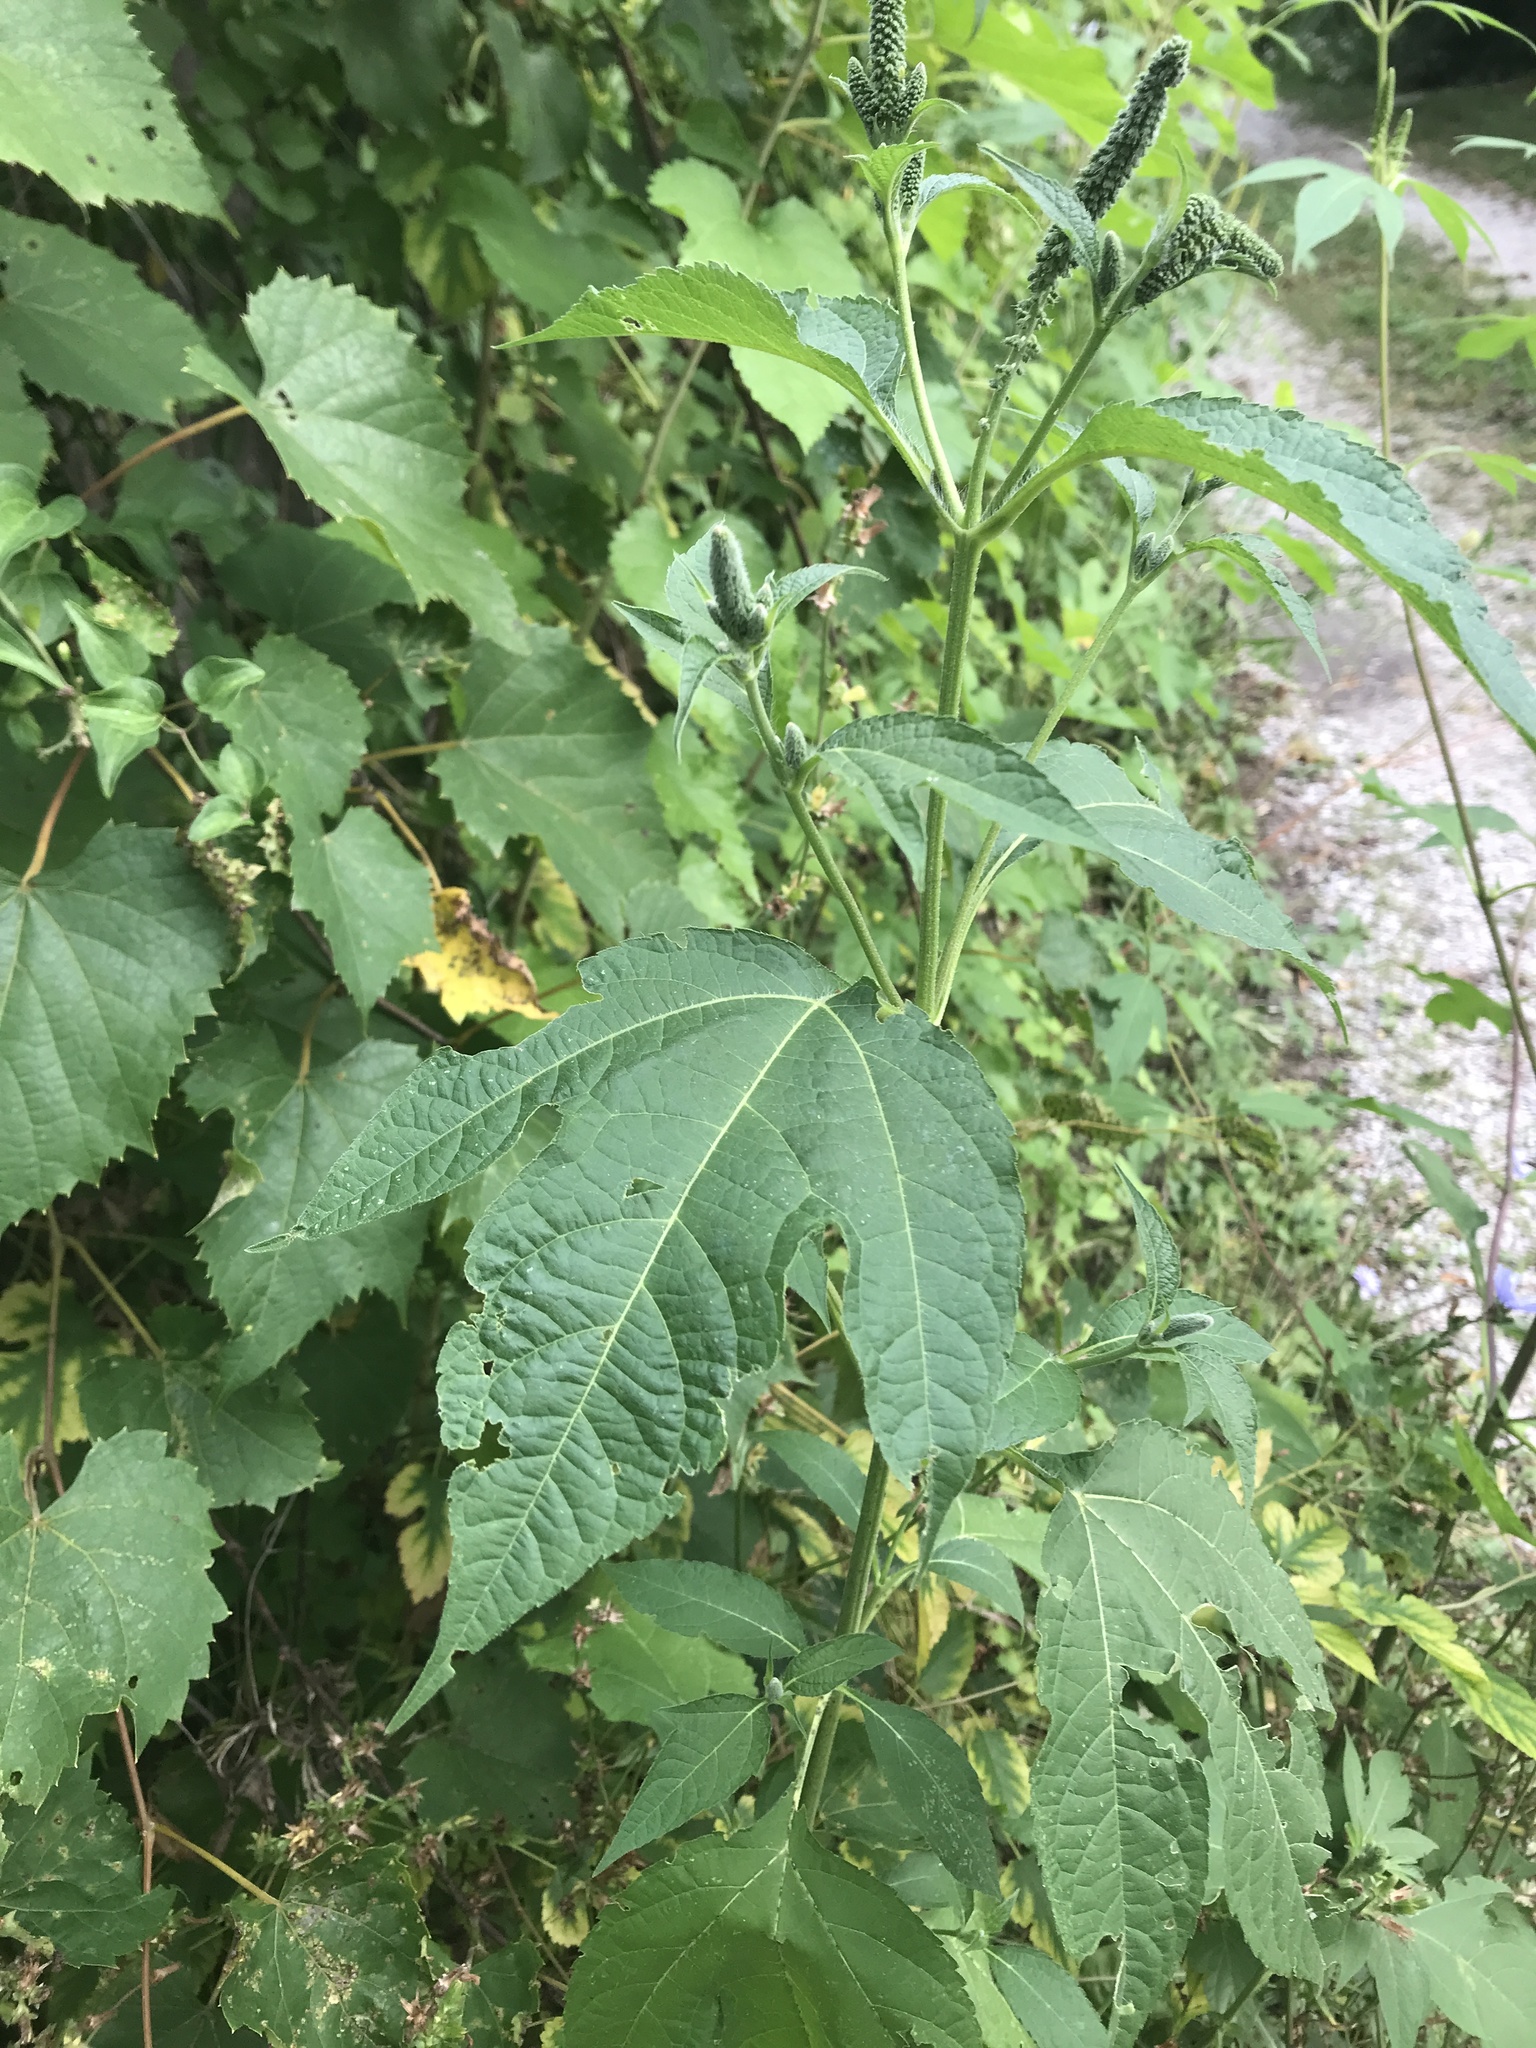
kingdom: Plantae
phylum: Tracheophyta
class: Magnoliopsida
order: Asterales
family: Asteraceae
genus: Ambrosia
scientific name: Ambrosia trifida
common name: Giant ragweed
